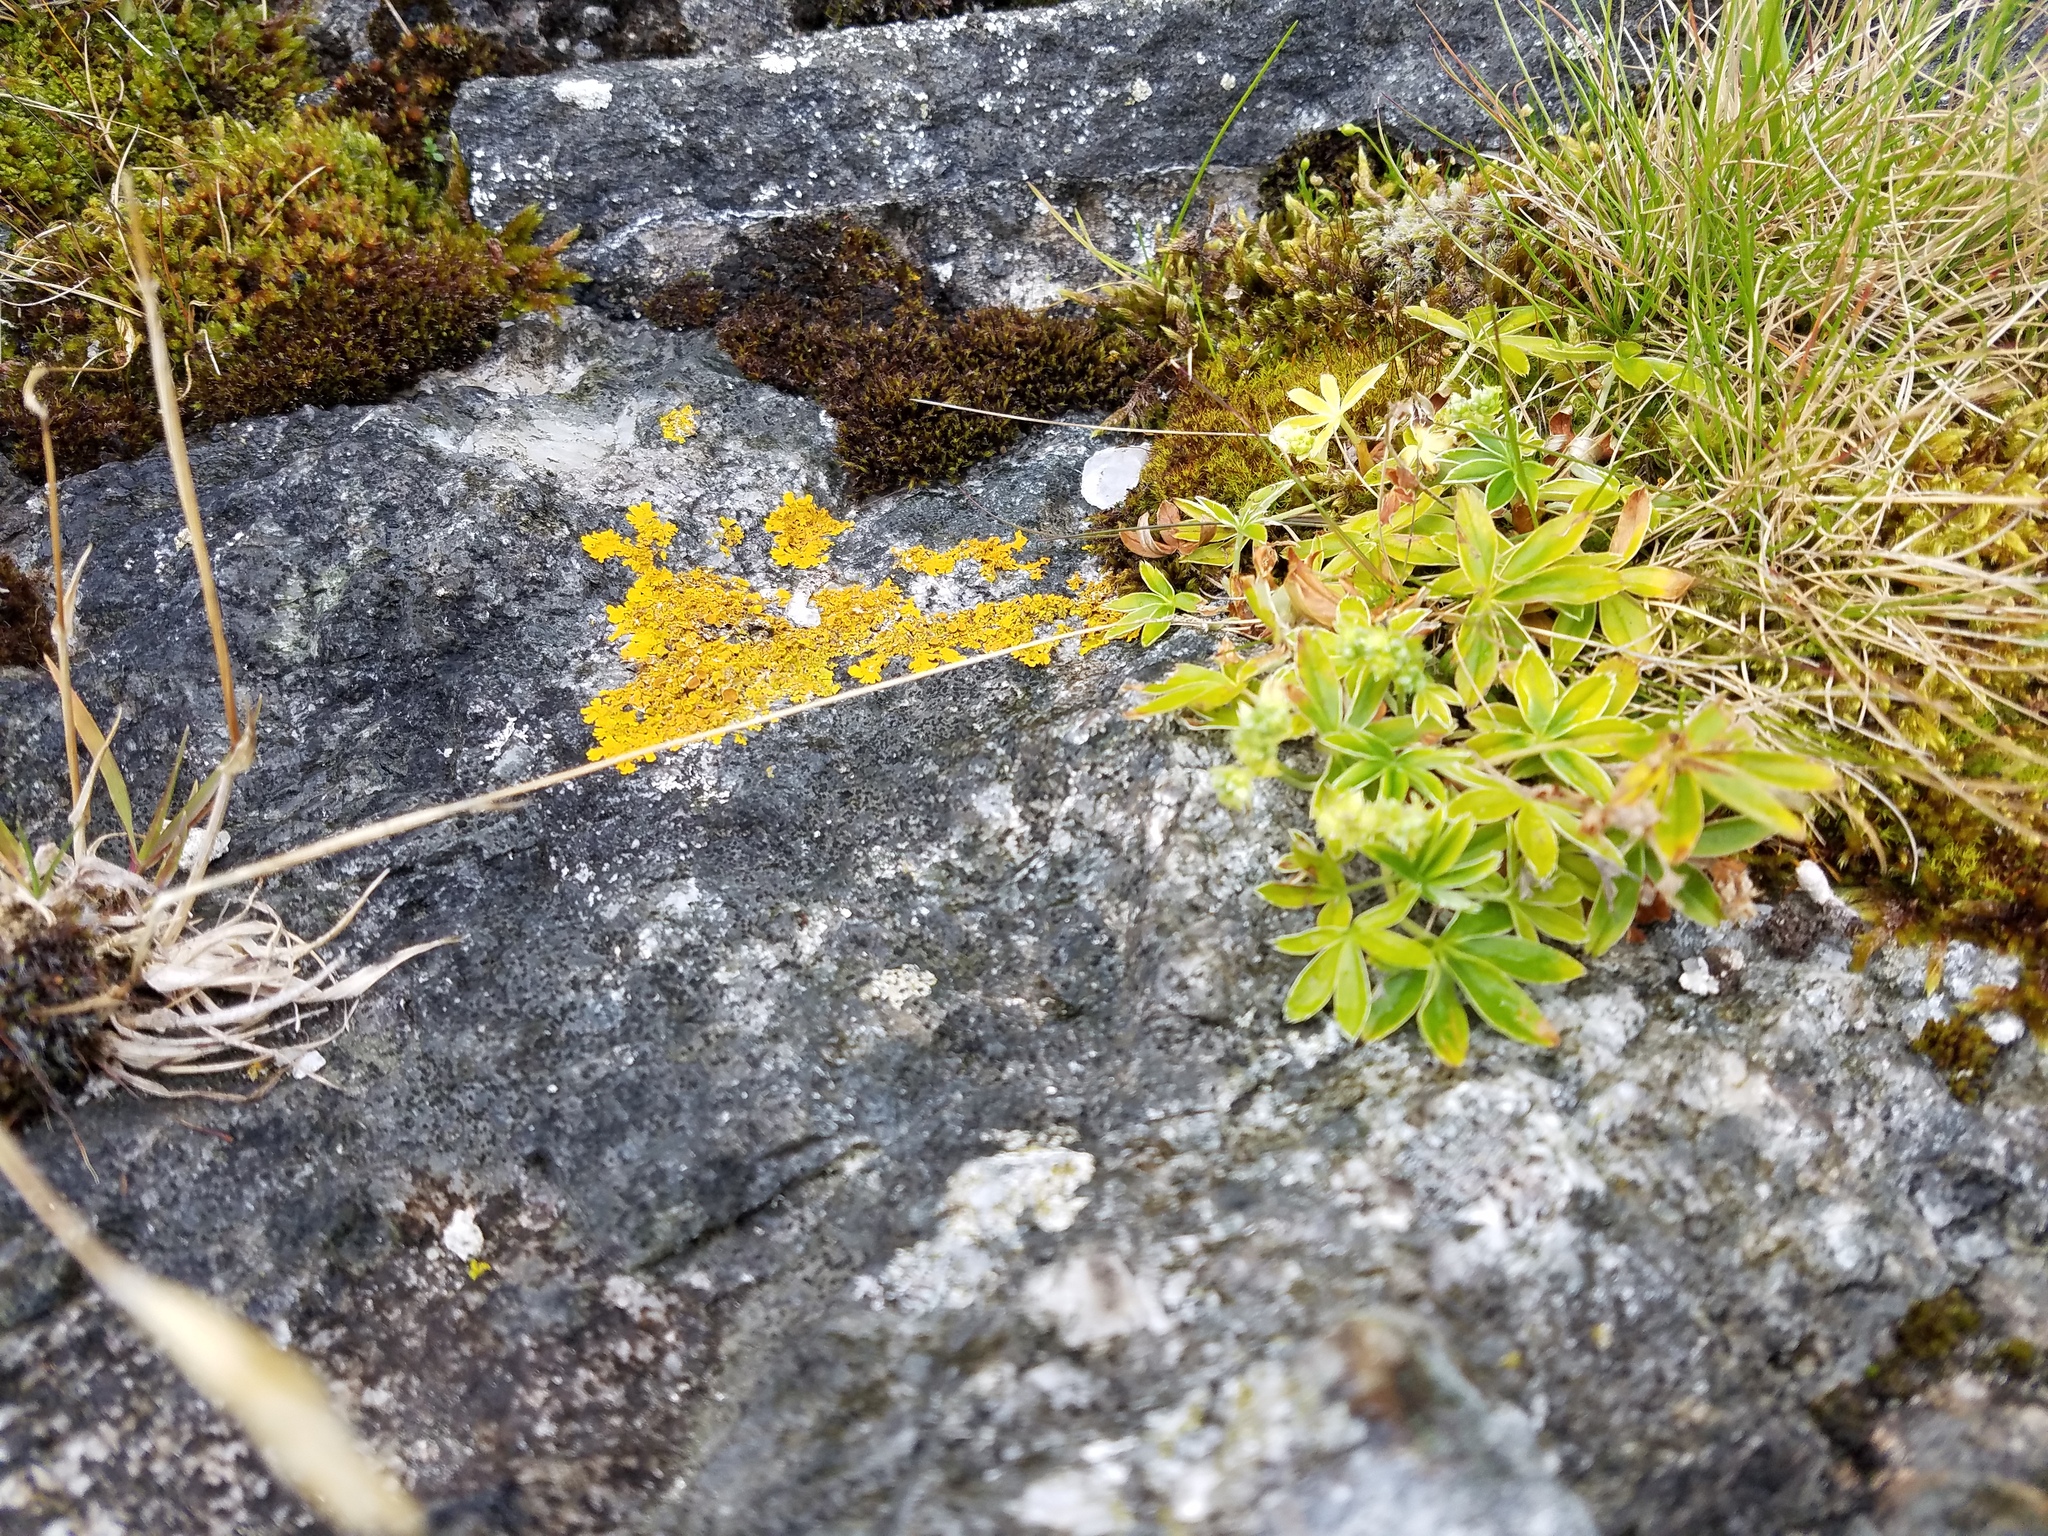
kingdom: Plantae
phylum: Tracheophyta
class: Magnoliopsida
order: Rosales
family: Rosaceae
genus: Alchemilla
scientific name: Alchemilla alpina
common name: Alpine lady's-mantle
